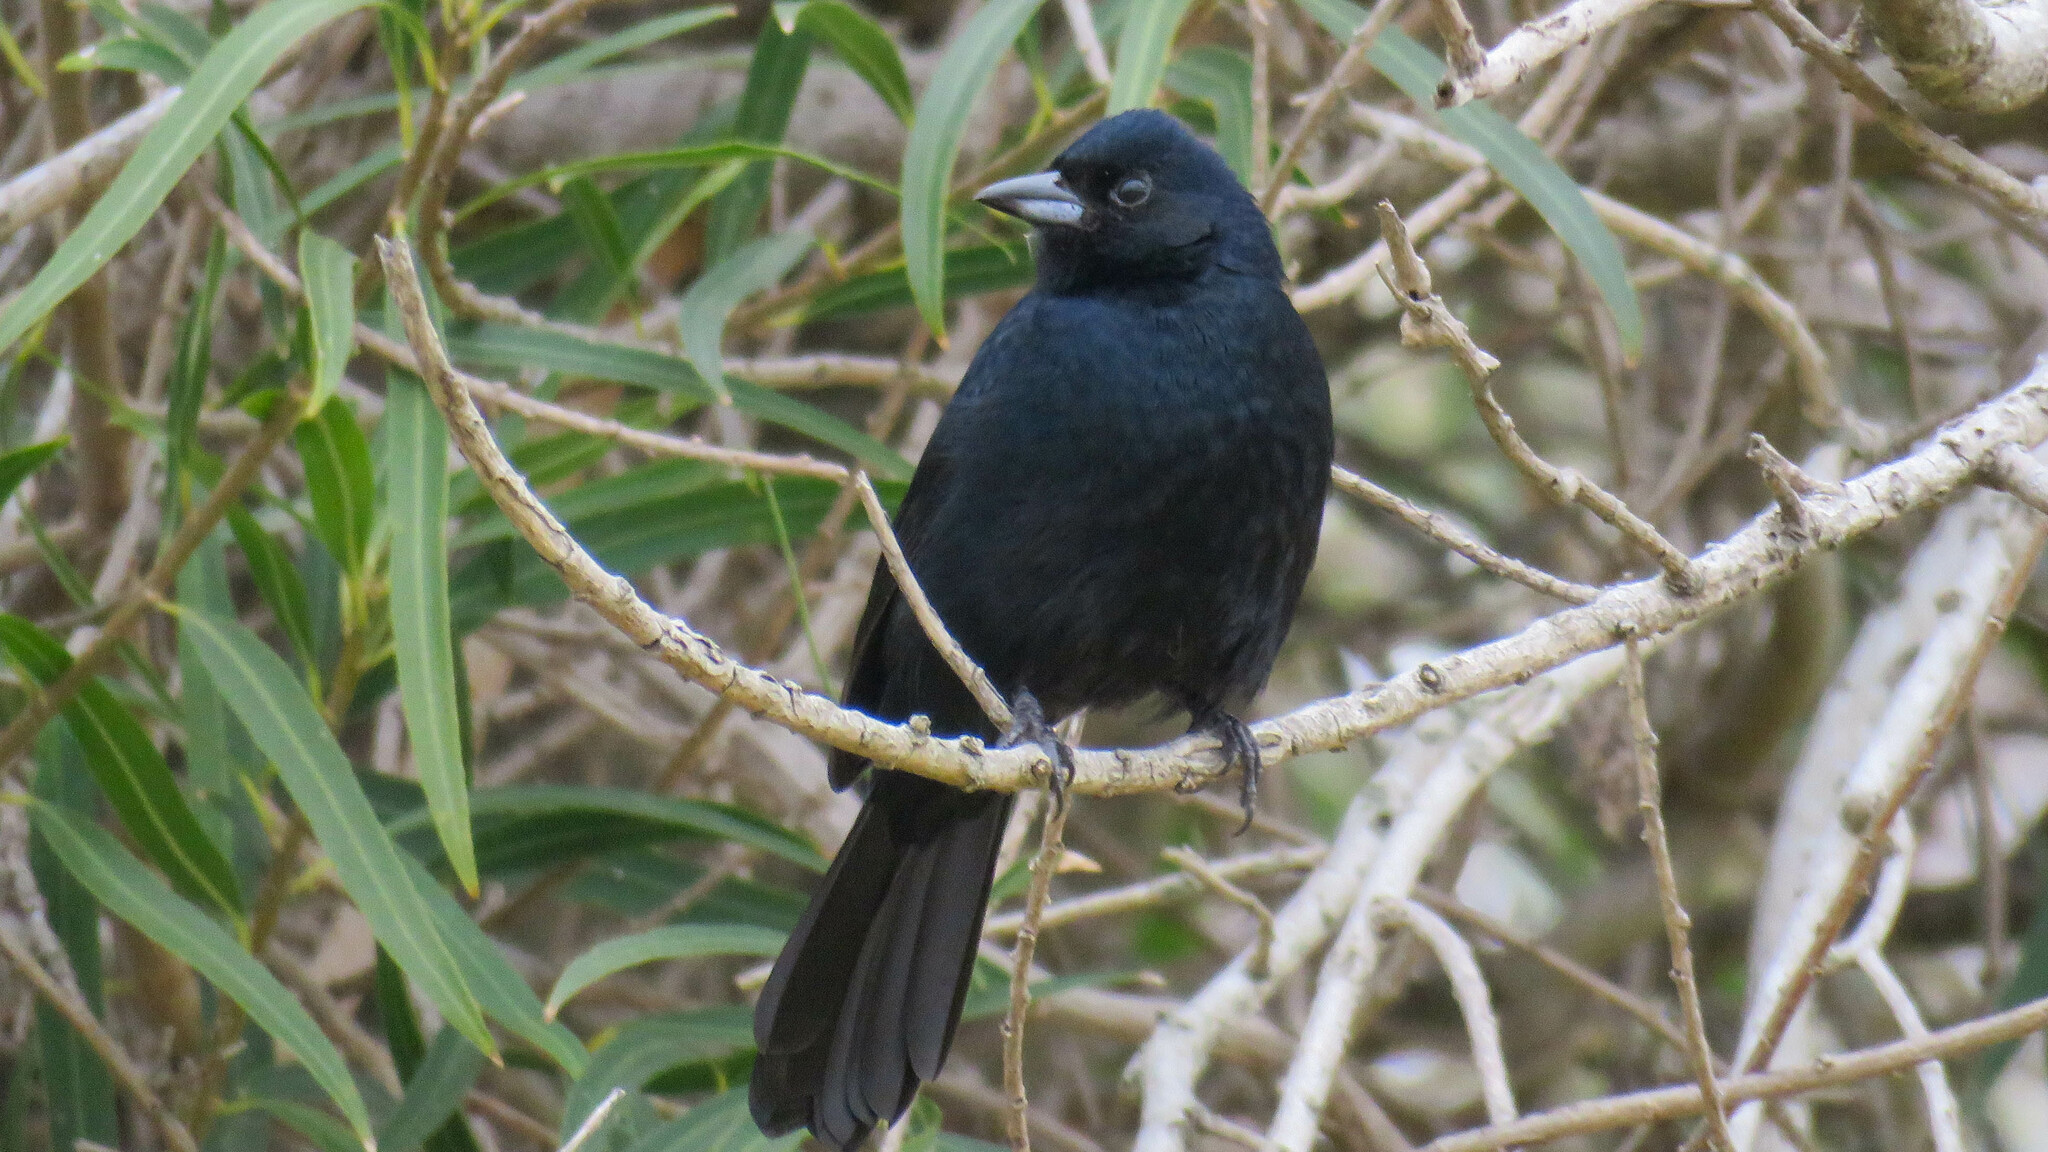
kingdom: Animalia
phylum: Chordata
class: Aves
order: Passeriformes
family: Thraupidae
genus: Tachyphonus
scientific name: Tachyphonus rufus
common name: White-lined tanager
